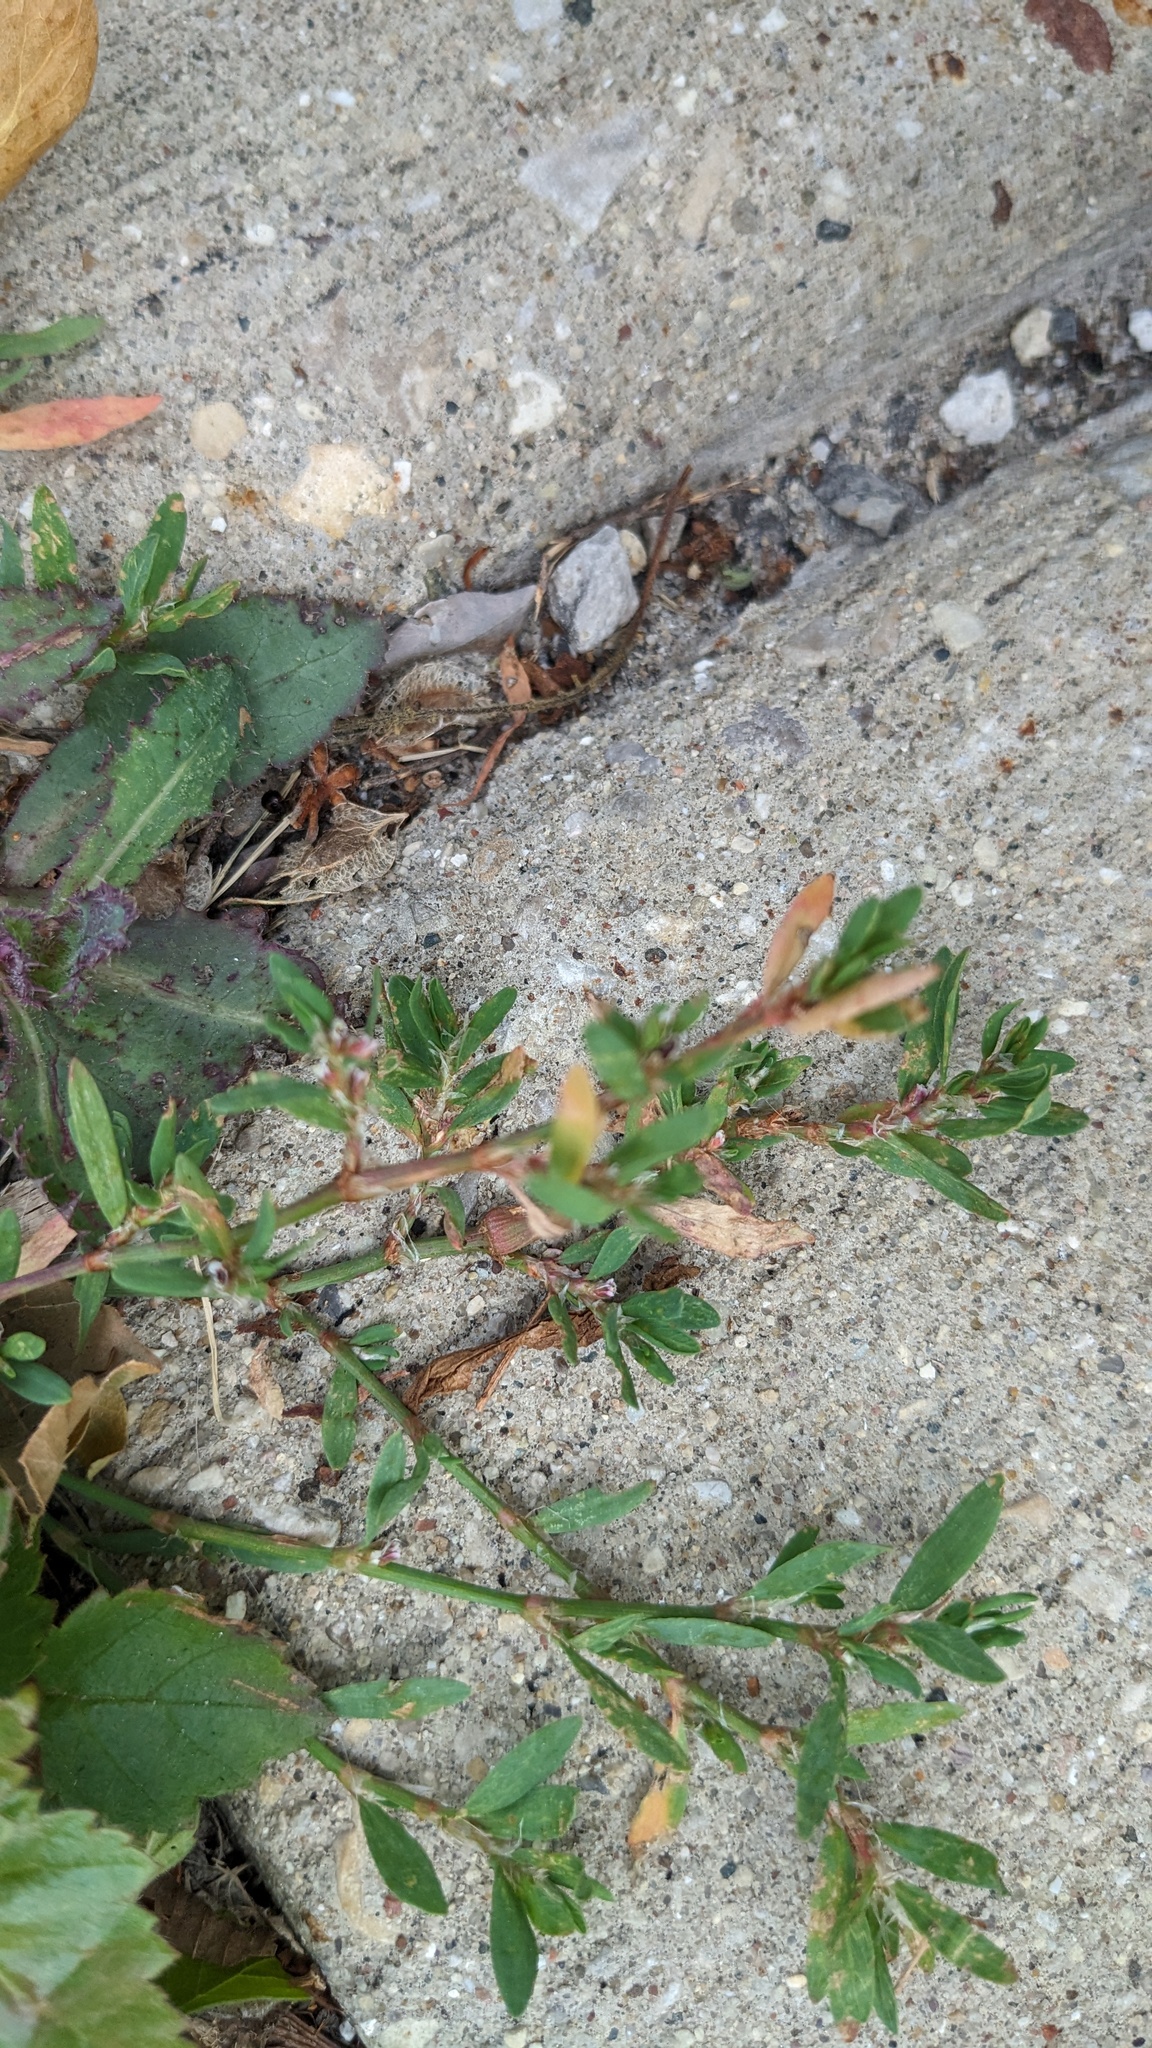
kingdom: Plantae
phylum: Tracheophyta
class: Magnoliopsida
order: Caryophyllales
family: Polygonaceae
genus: Polygonum
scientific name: Polygonum aviculare
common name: Prostrate knotweed
